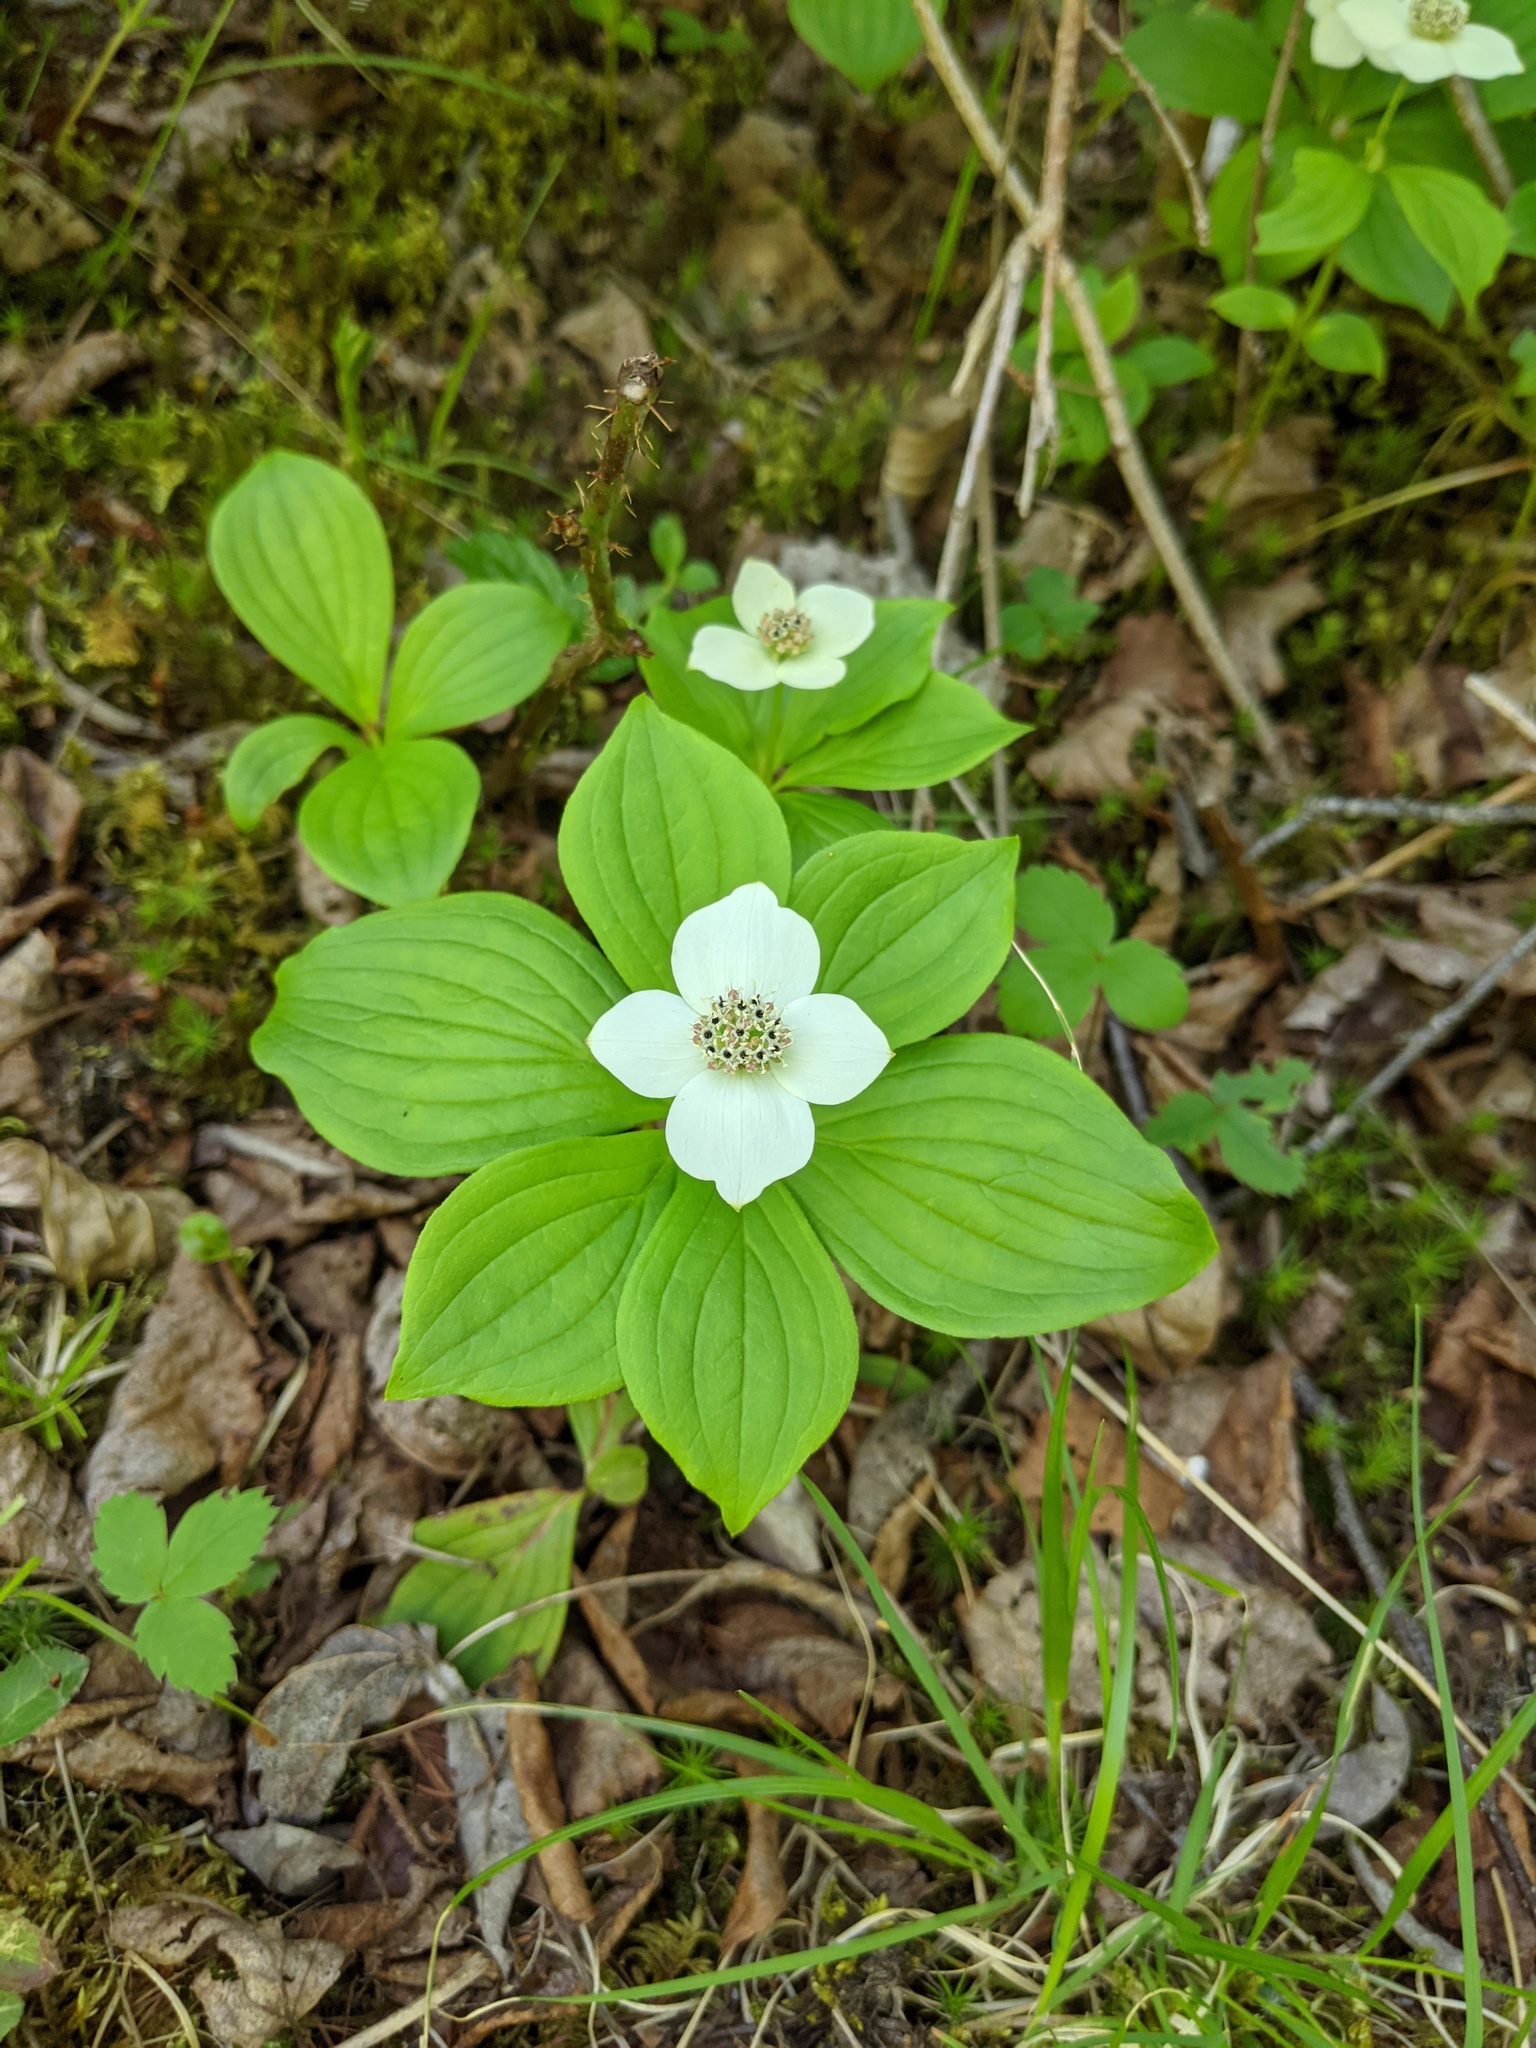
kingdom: Plantae
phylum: Tracheophyta
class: Magnoliopsida
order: Cornales
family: Cornaceae
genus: Cornus
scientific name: Cornus canadensis
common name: Creeping dogwood
